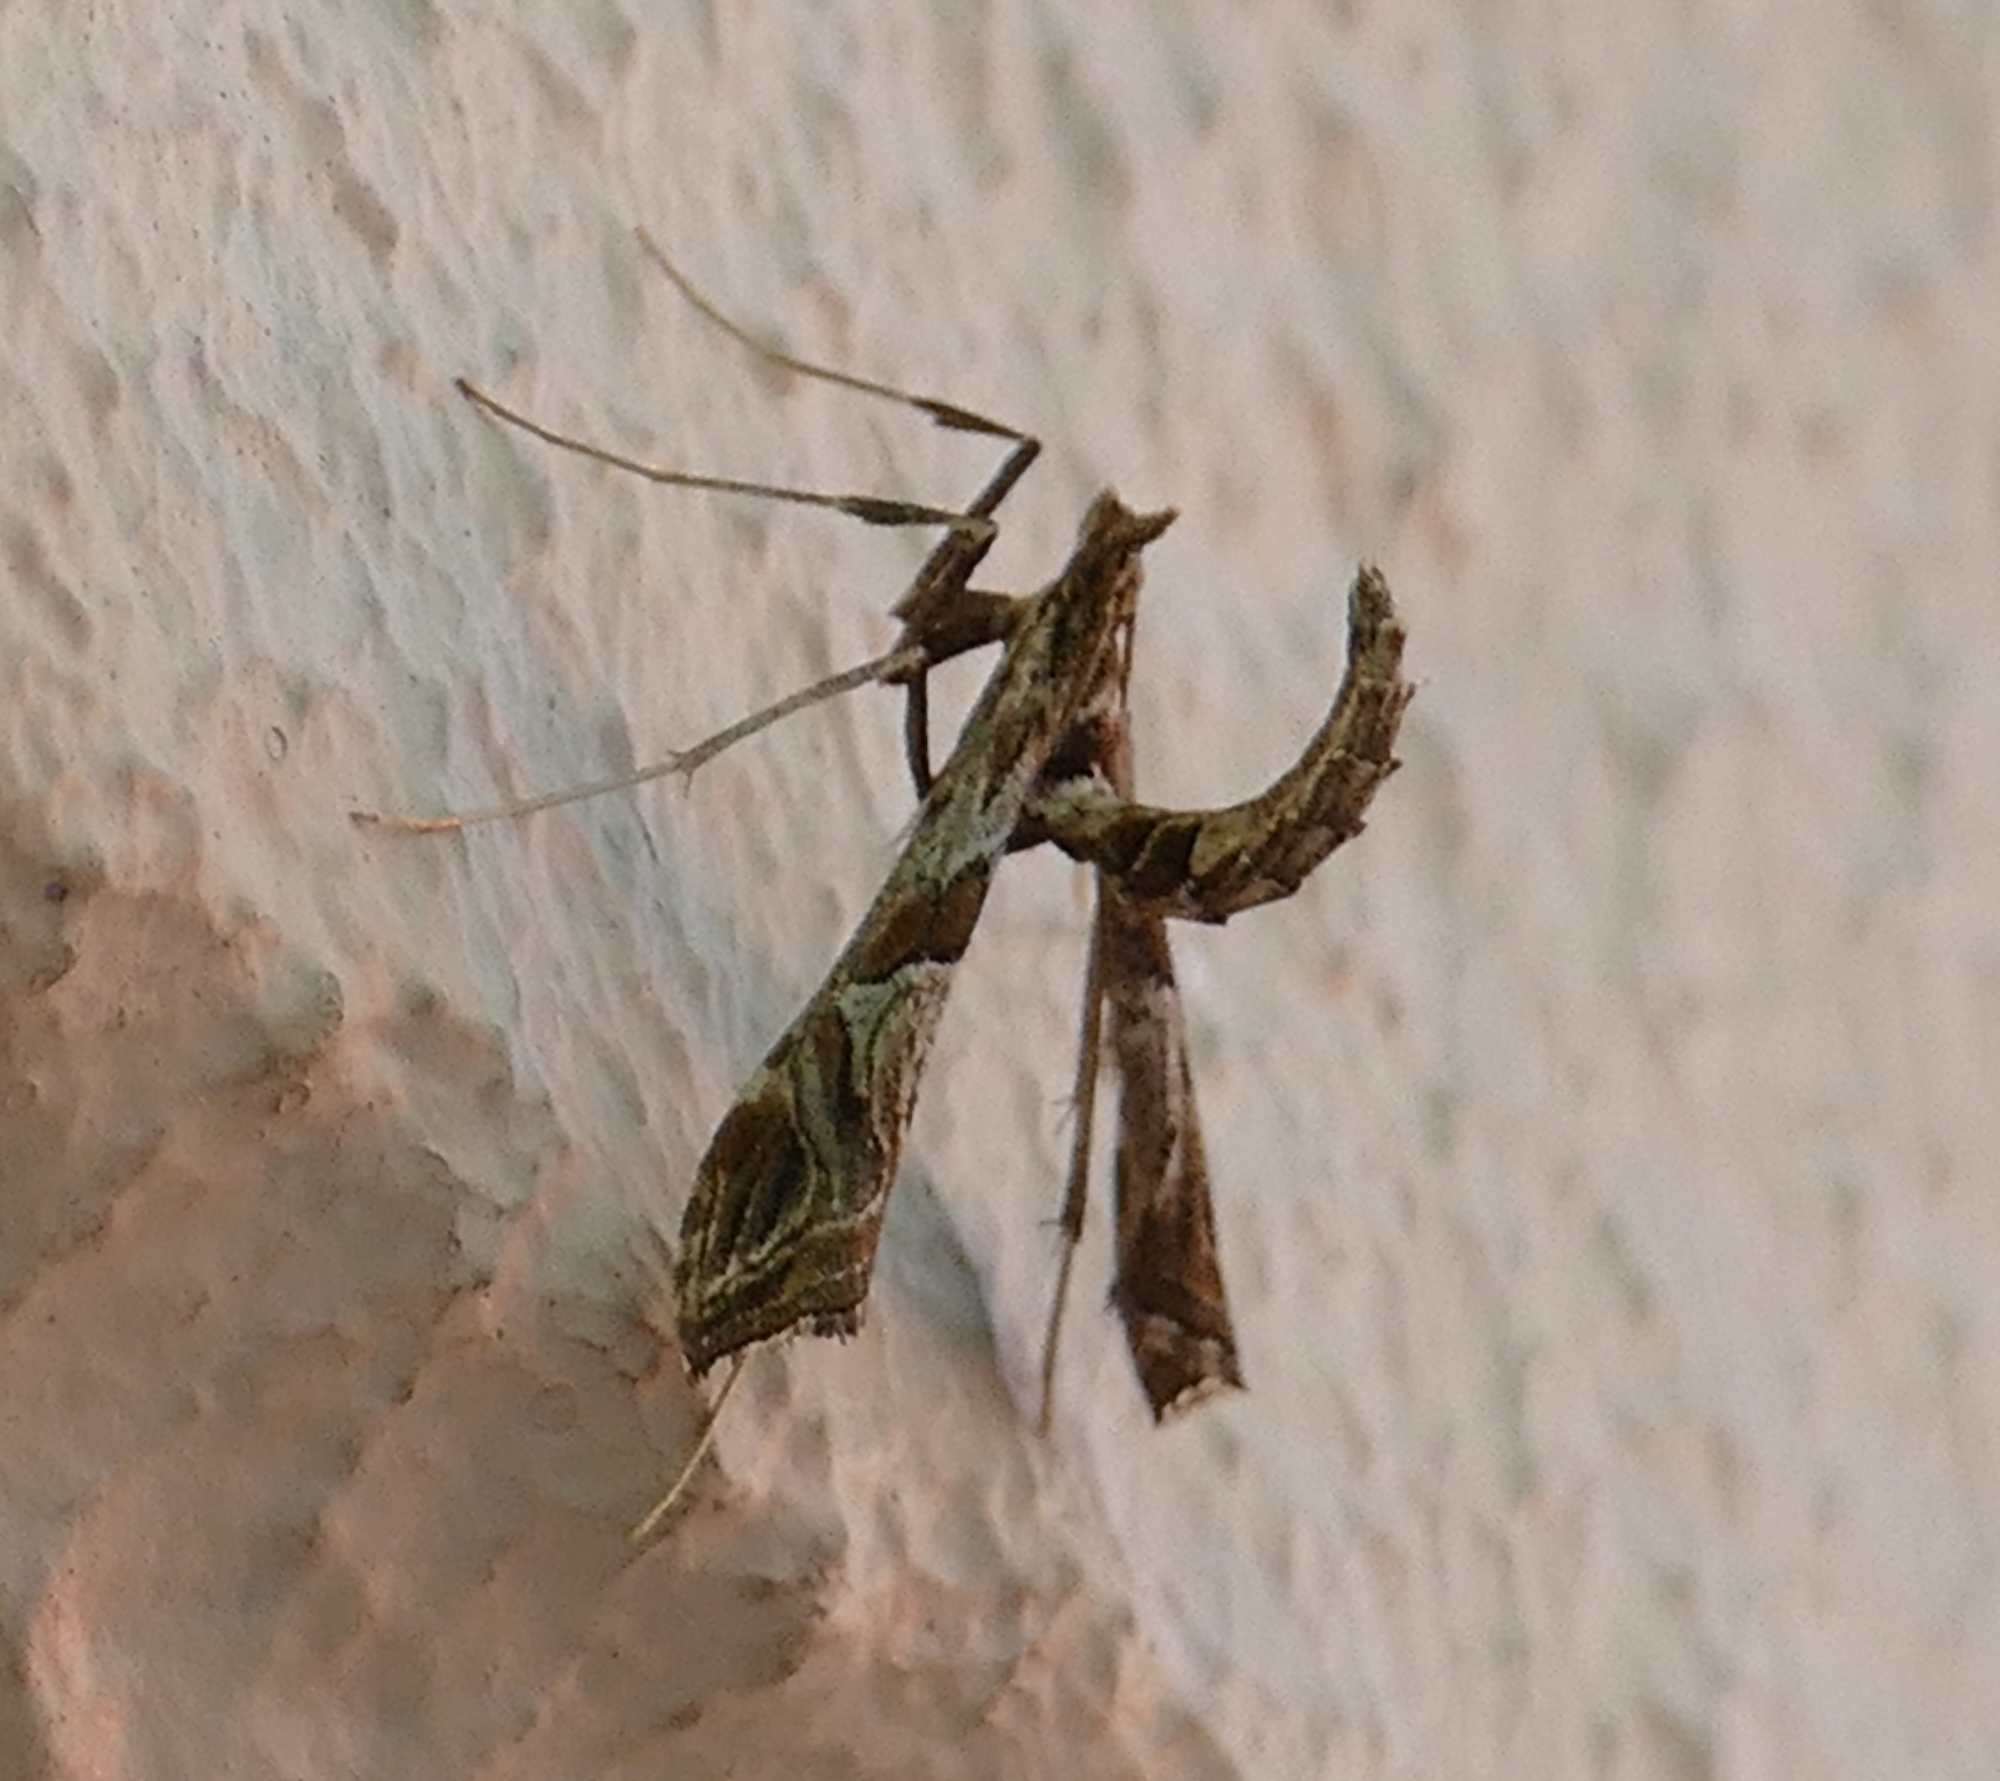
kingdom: Animalia
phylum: Arthropoda
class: Insecta
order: Lepidoptera
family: Crambidae
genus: Lineodes
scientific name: Lineodes interrupta
